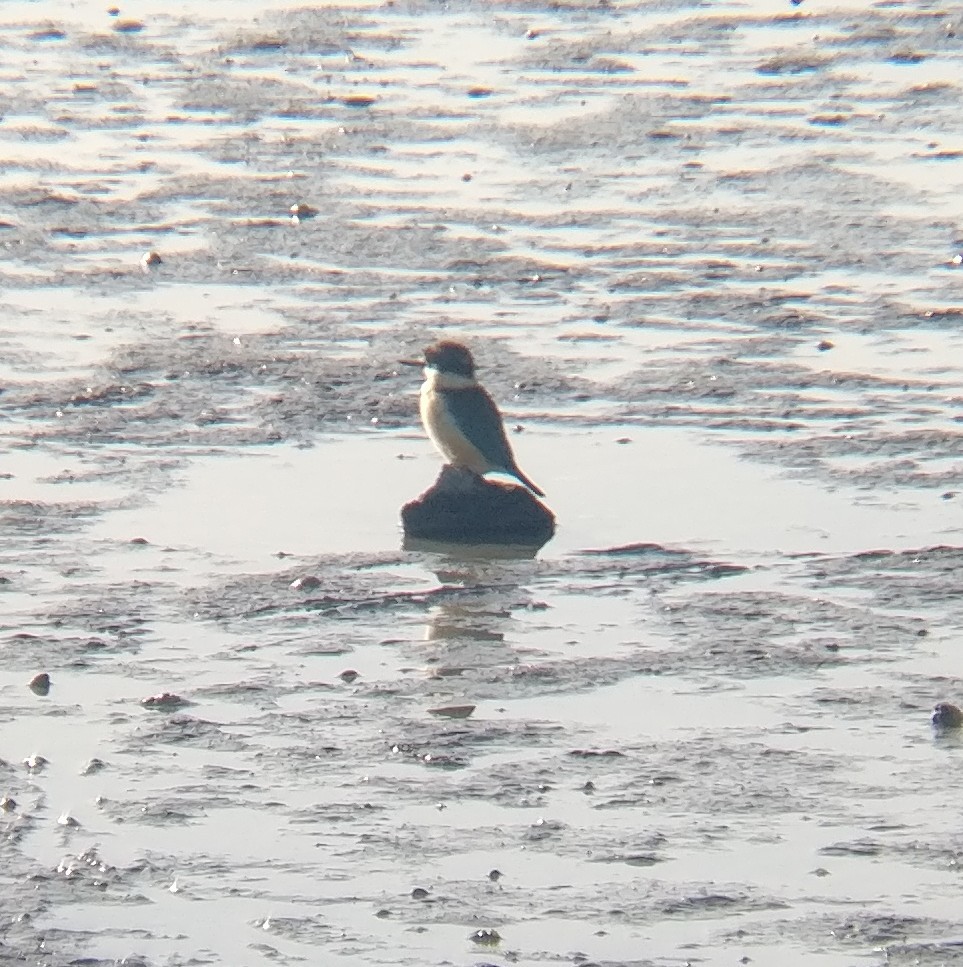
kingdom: Animalia
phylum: Chordata
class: Aves
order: Coraciiformes
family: Alcedinidae
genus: Todiramphus
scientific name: Todiramphus sanctus
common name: Sacred kingfisher
